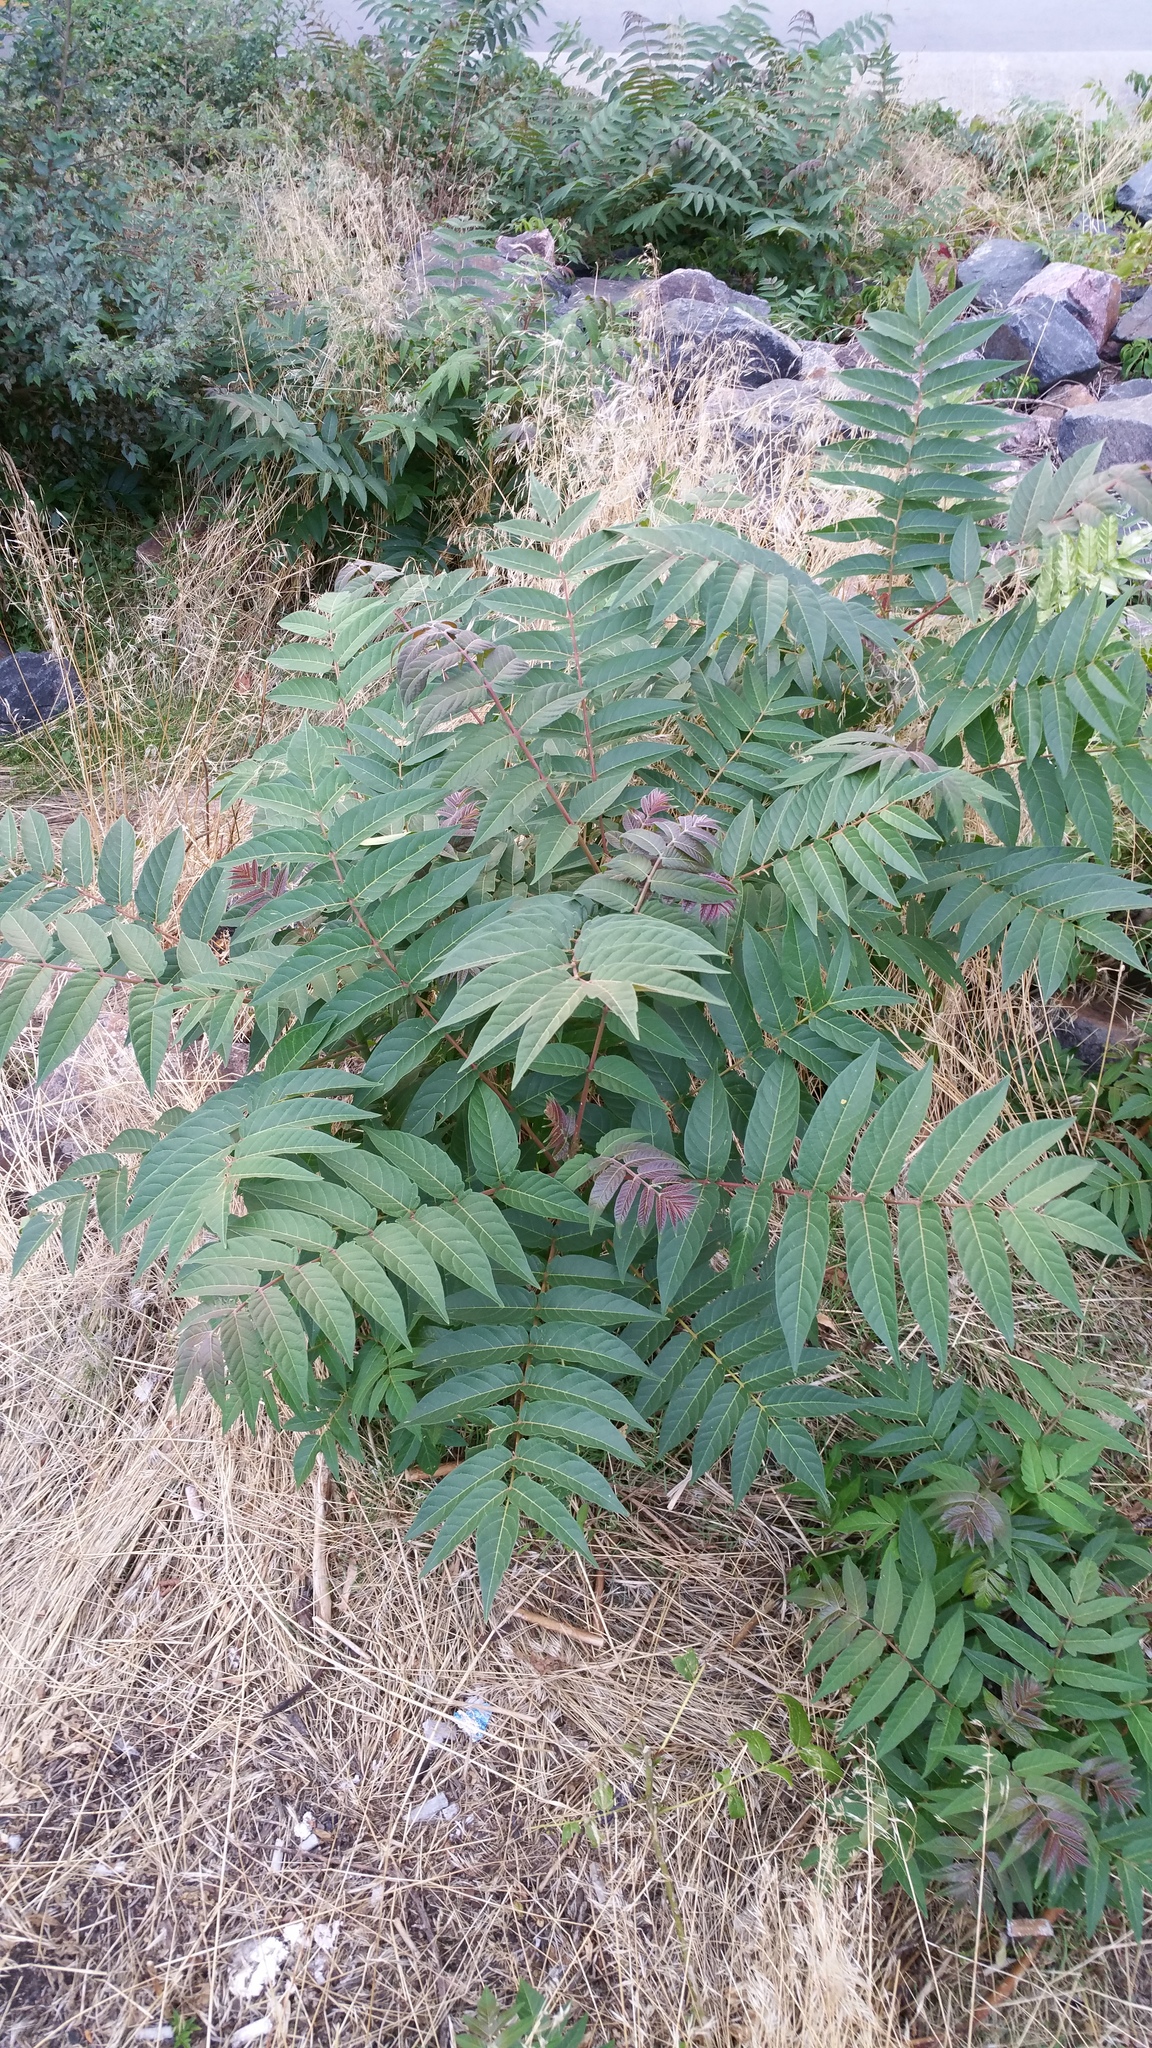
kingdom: Plantae
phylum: Tracheophyta
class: Magnoliopsida
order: Sapindales
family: Simaroubaceae
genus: Ailanthus
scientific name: Ailanthus altissima
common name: Tree-of-heaven
